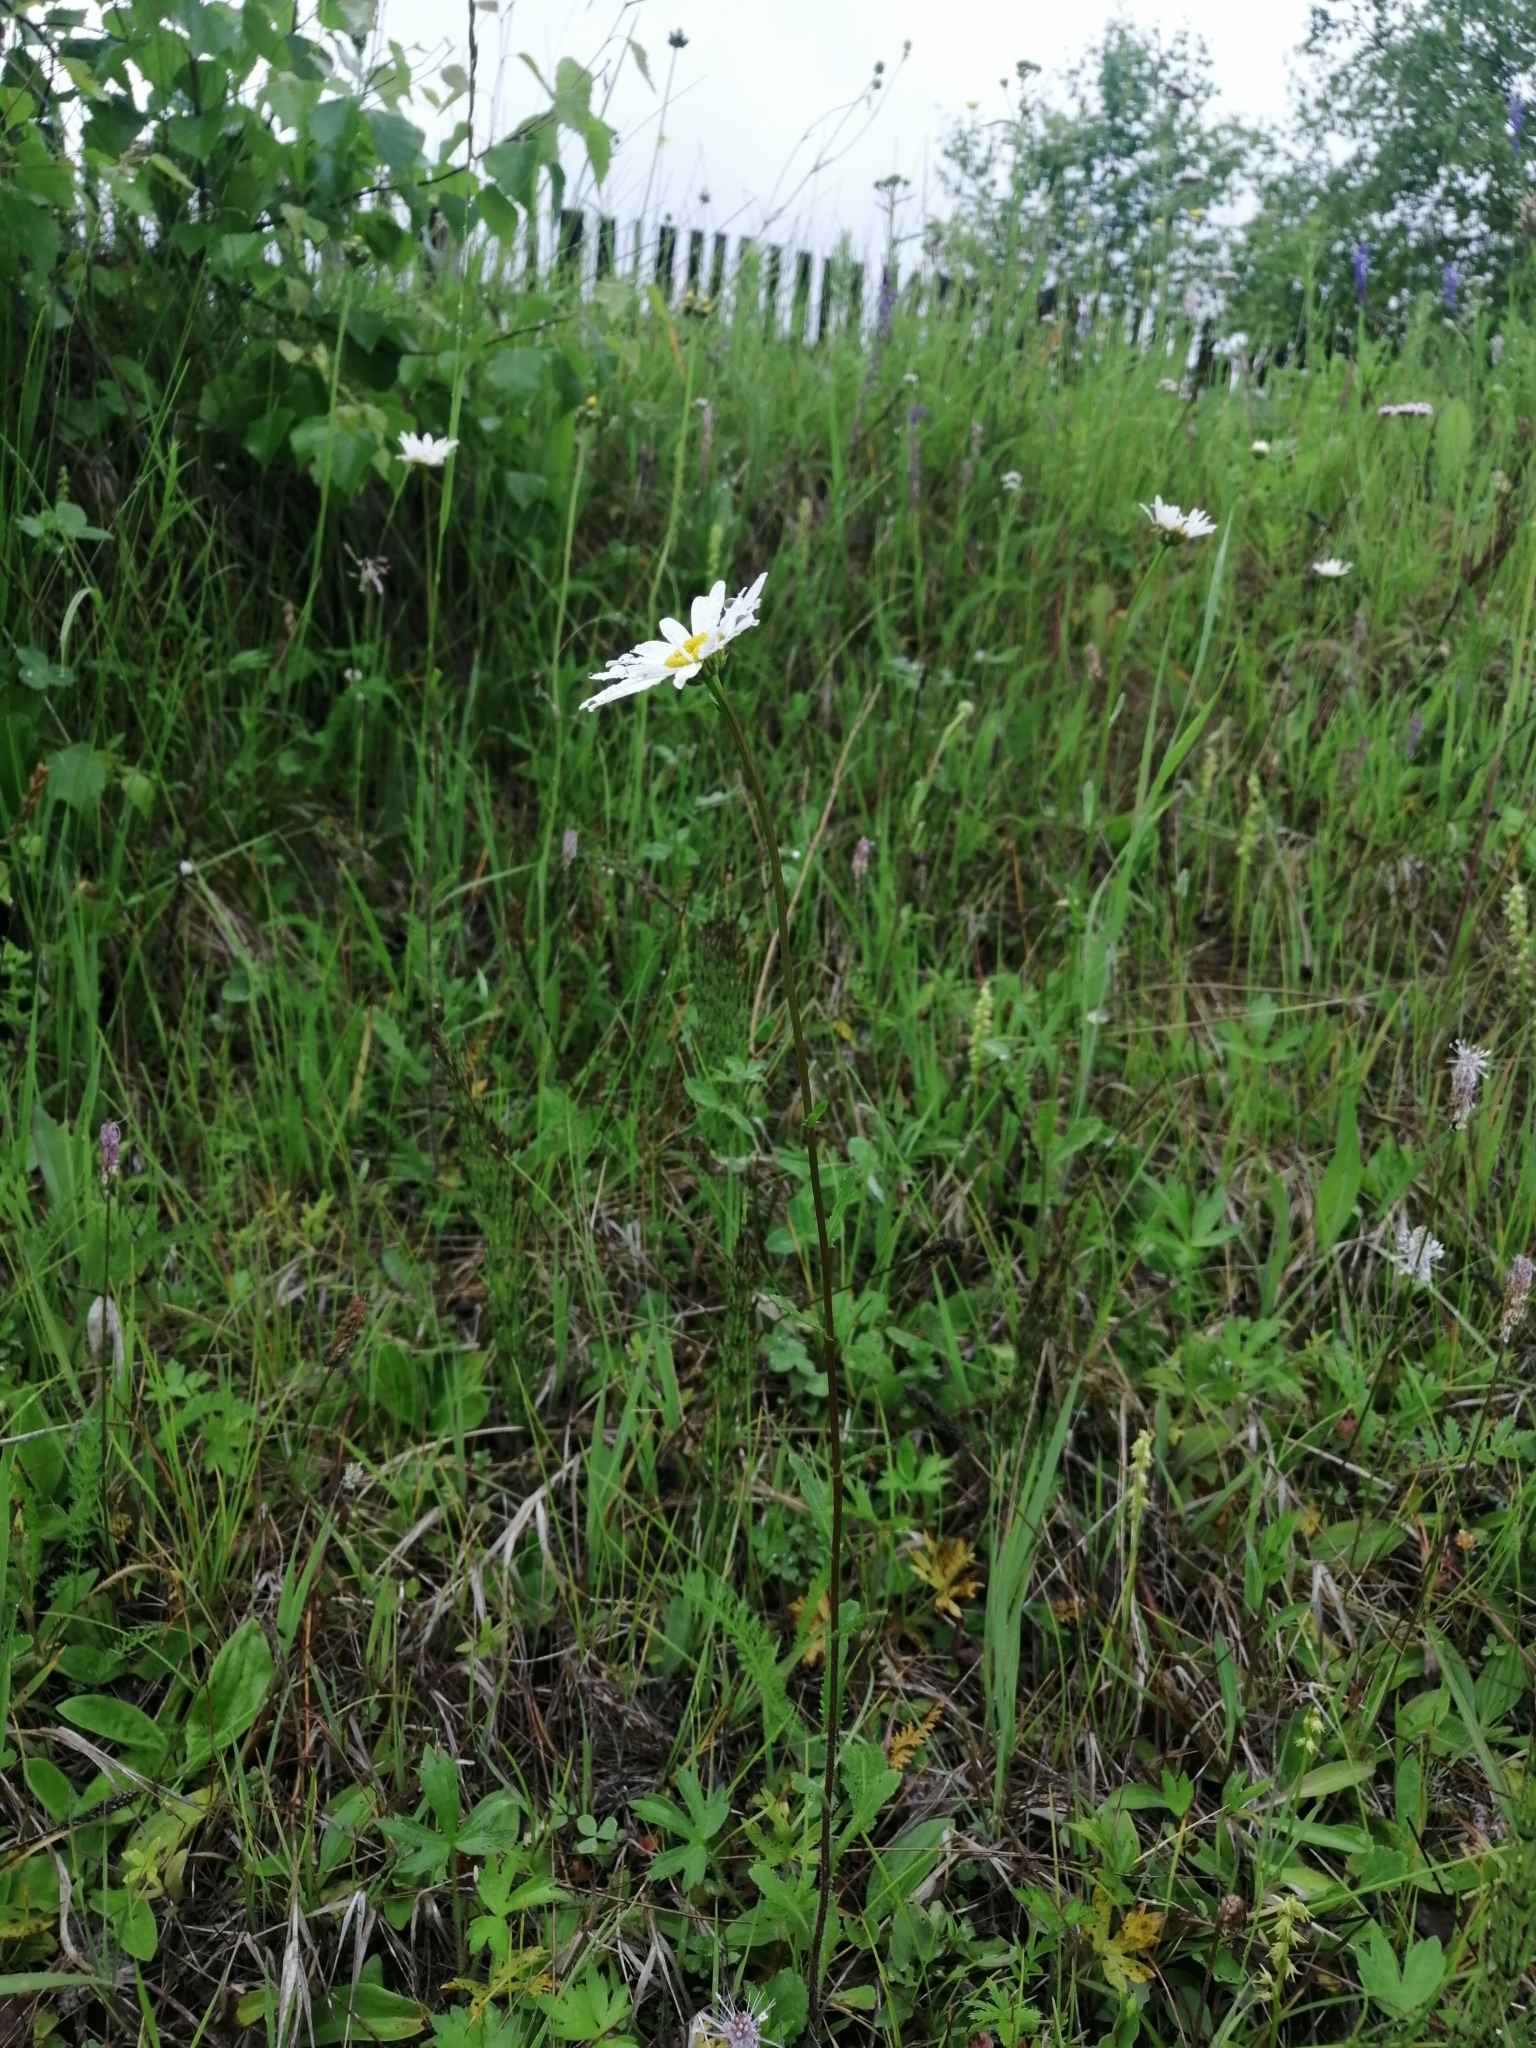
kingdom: Plantae
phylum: Tracheophyta
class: Magnoliopsida
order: Asterales
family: Asteraceae
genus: Leucanthemum
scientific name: Leucanthemum ircutianum
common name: Daisy
